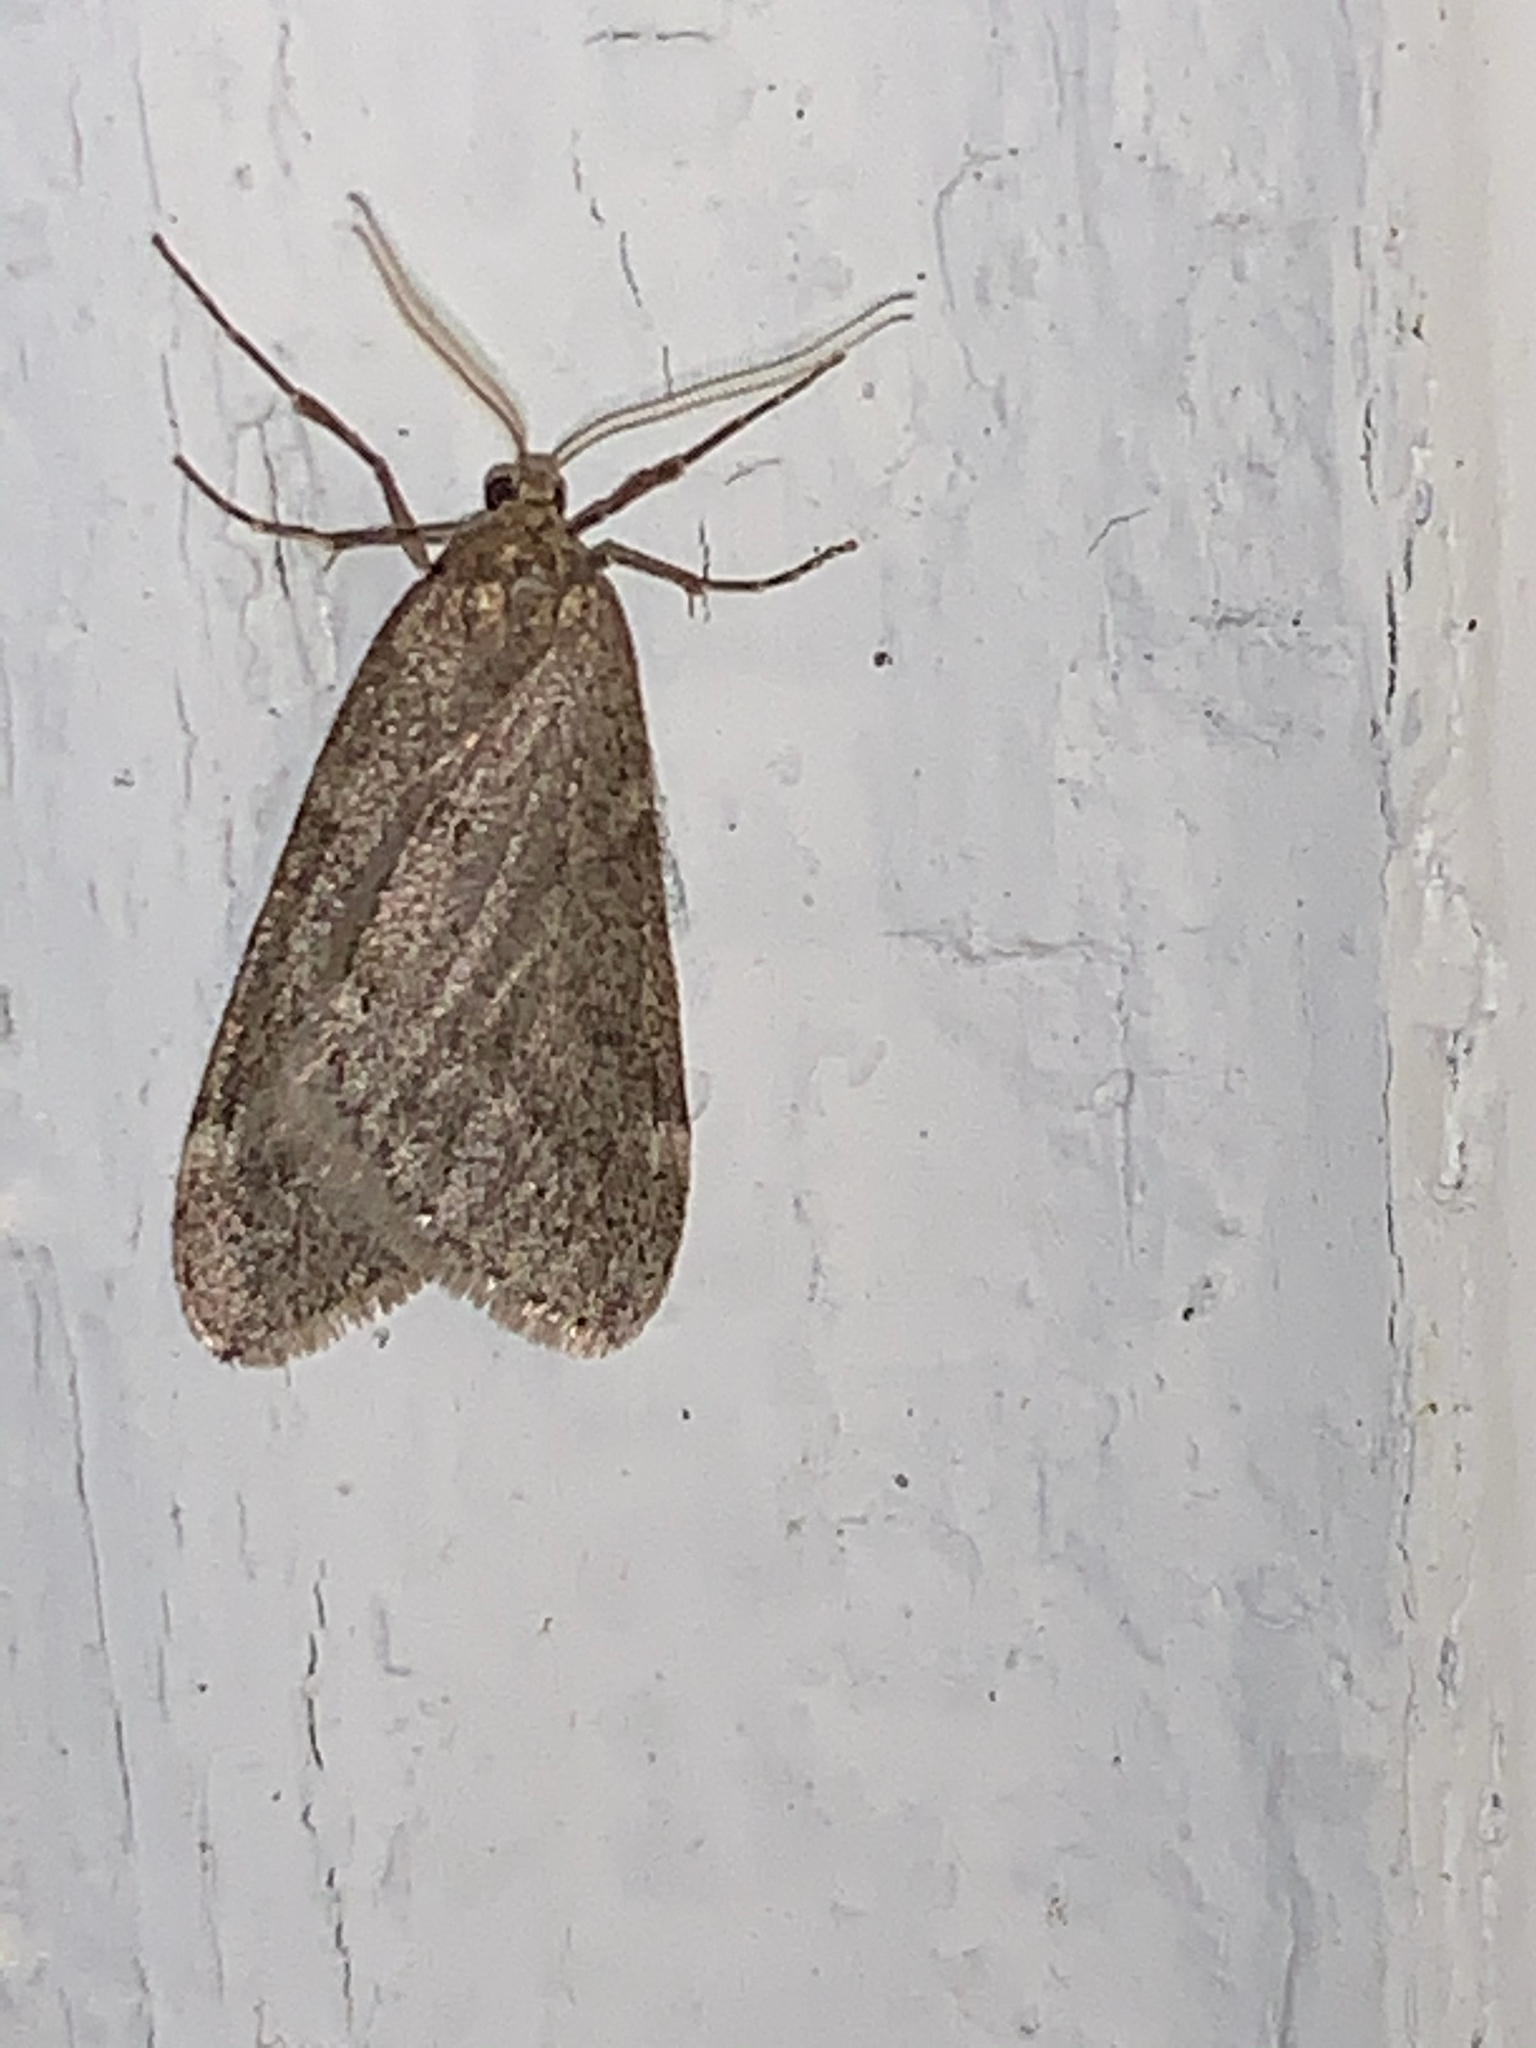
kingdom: Animalia
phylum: Arthropoda
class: Insecta
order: Lepidoptera
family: Geometridae
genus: Alsophila
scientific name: Alsophila pometaria
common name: Fall cankerworm
